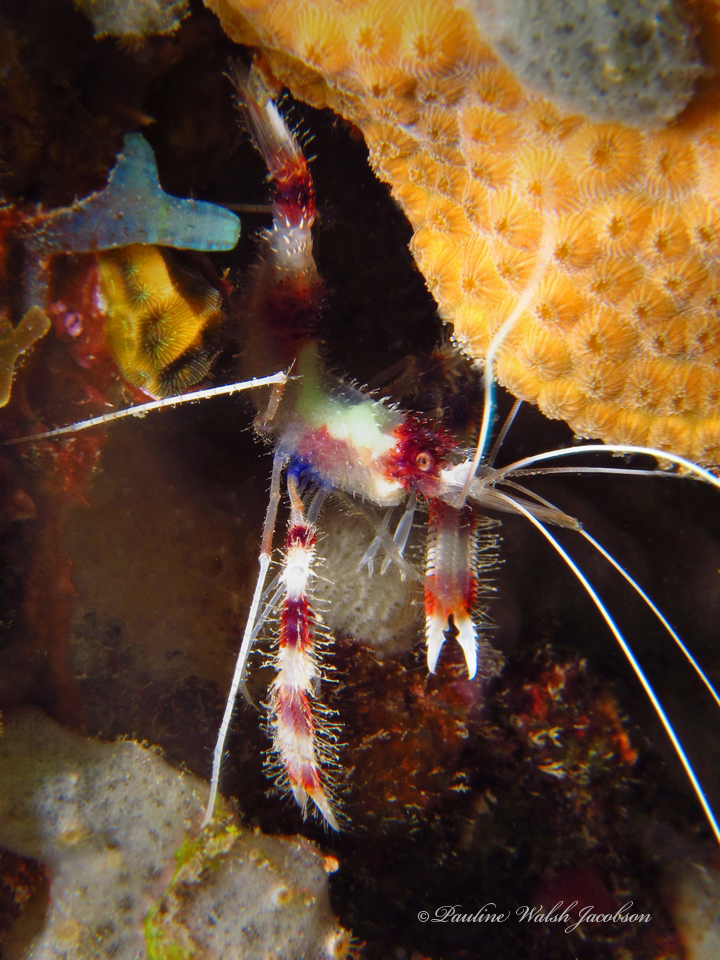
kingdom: Animalia
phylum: Arthropoda
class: Malacostraca
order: Decapoda
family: Stenopodidae
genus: Stenopus
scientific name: Stenopus hispidus
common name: Banded coral shrimp
